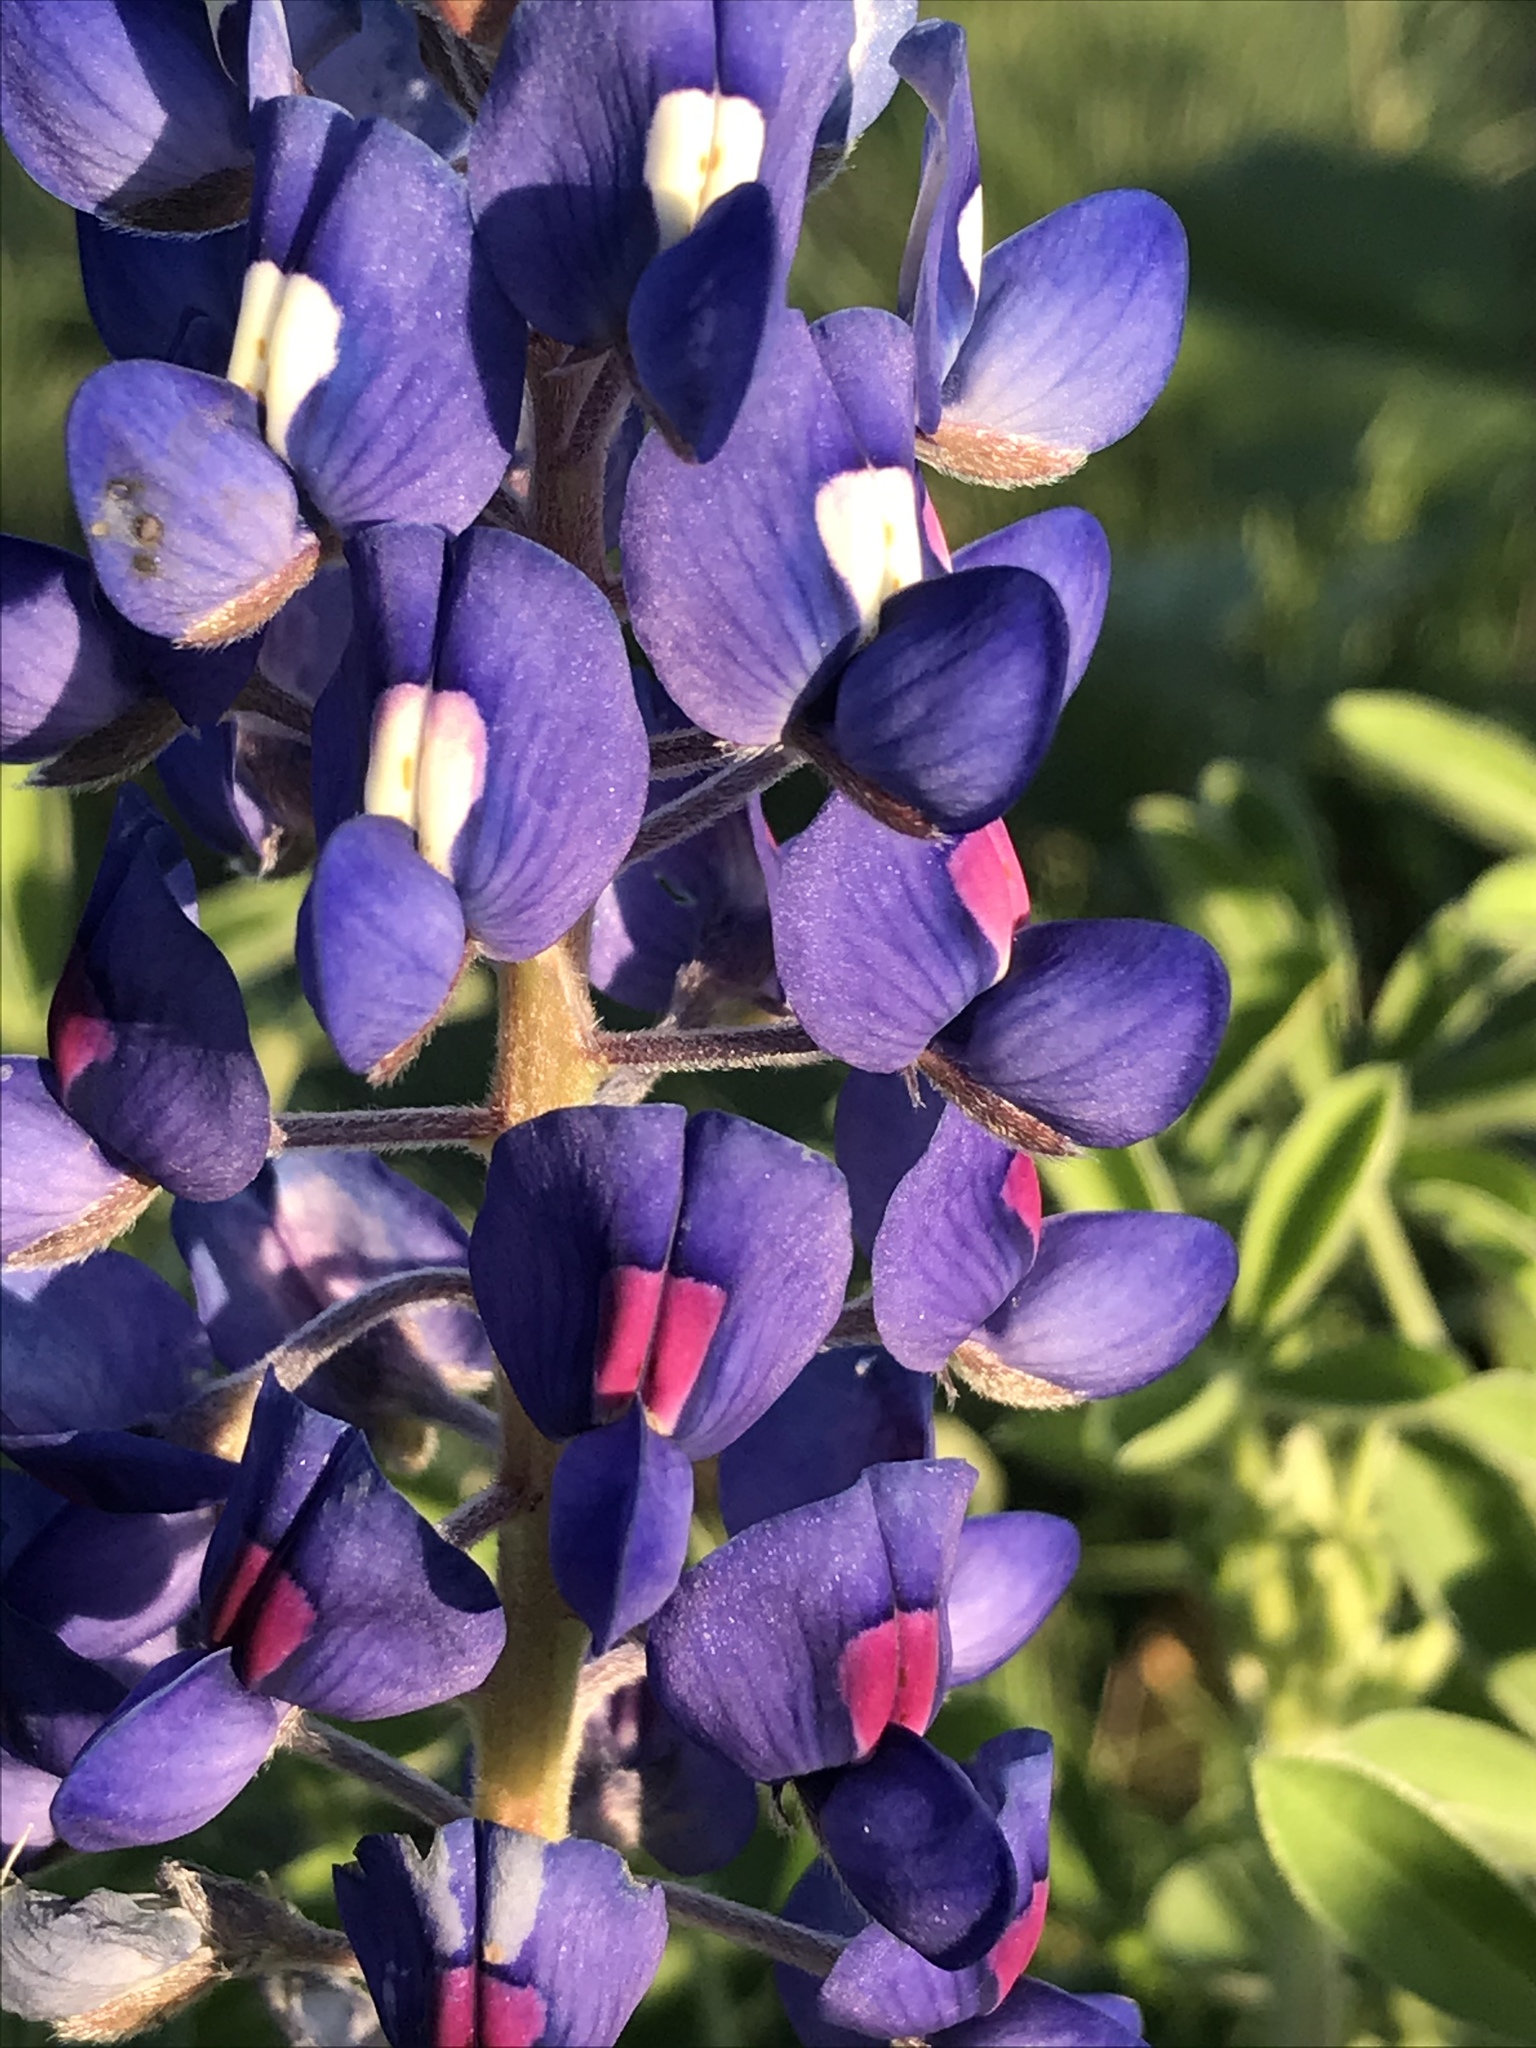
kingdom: Plantae
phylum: Tracheophyta
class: Magnoliopsida
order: Fabales
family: Fabaceae
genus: Lupinus
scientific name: Lupinus texensis
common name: Texas bluebonnet
